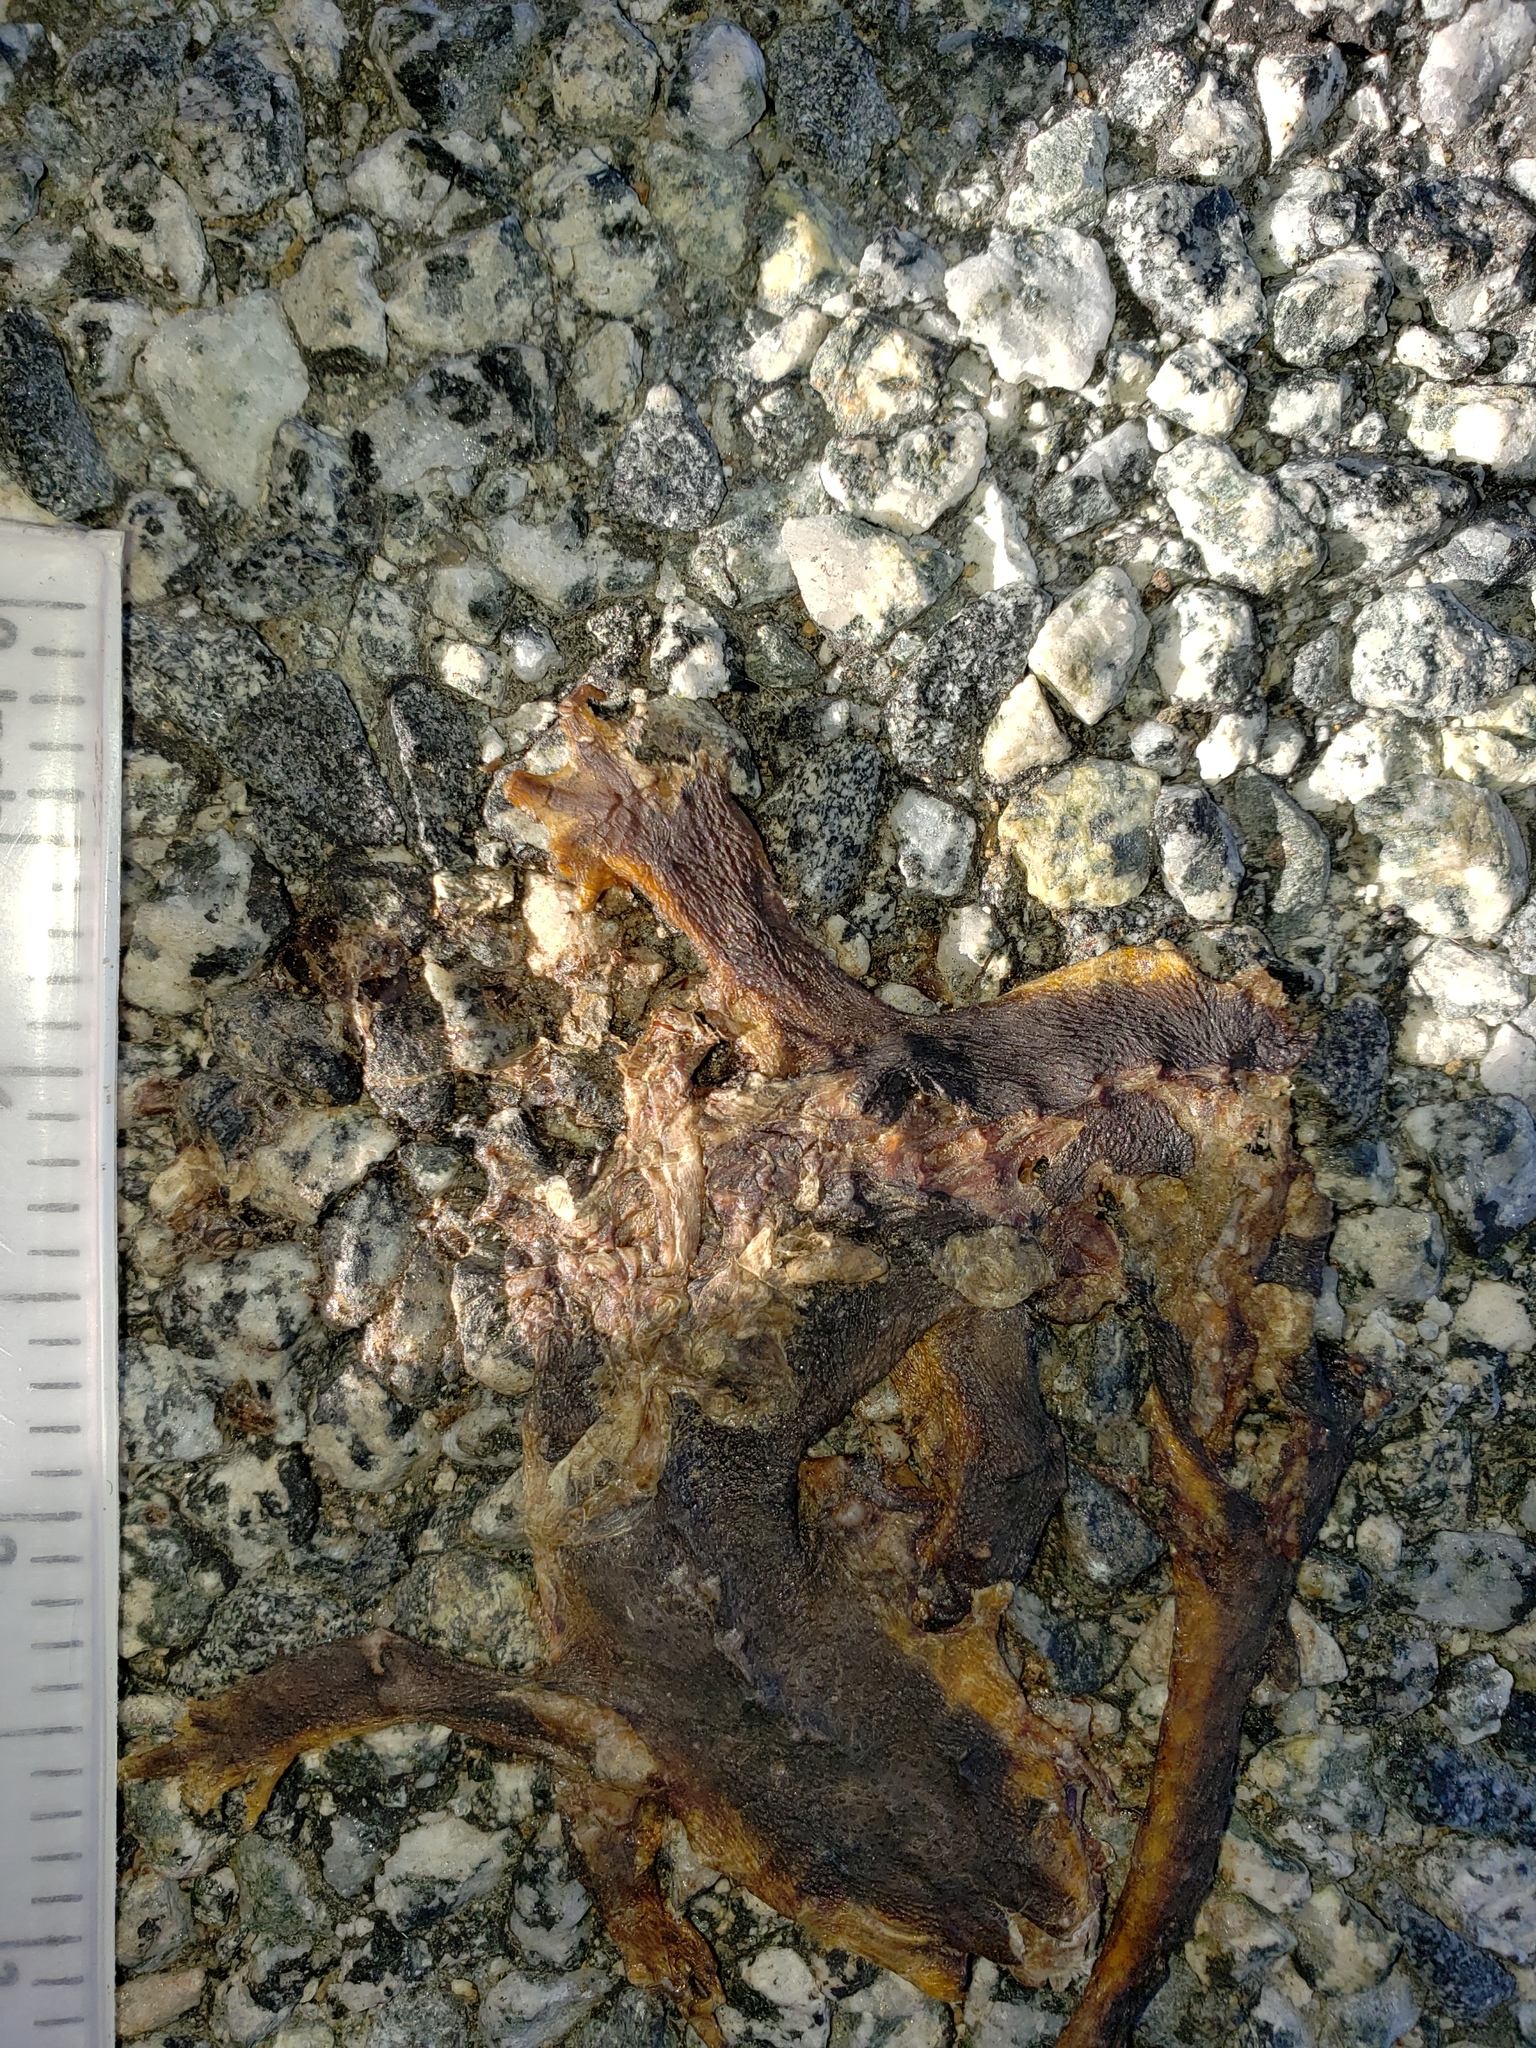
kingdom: Animalia
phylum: Chordata
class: Amphibia
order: Caudata
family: Salamandridae
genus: Taricha
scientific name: Taricha
